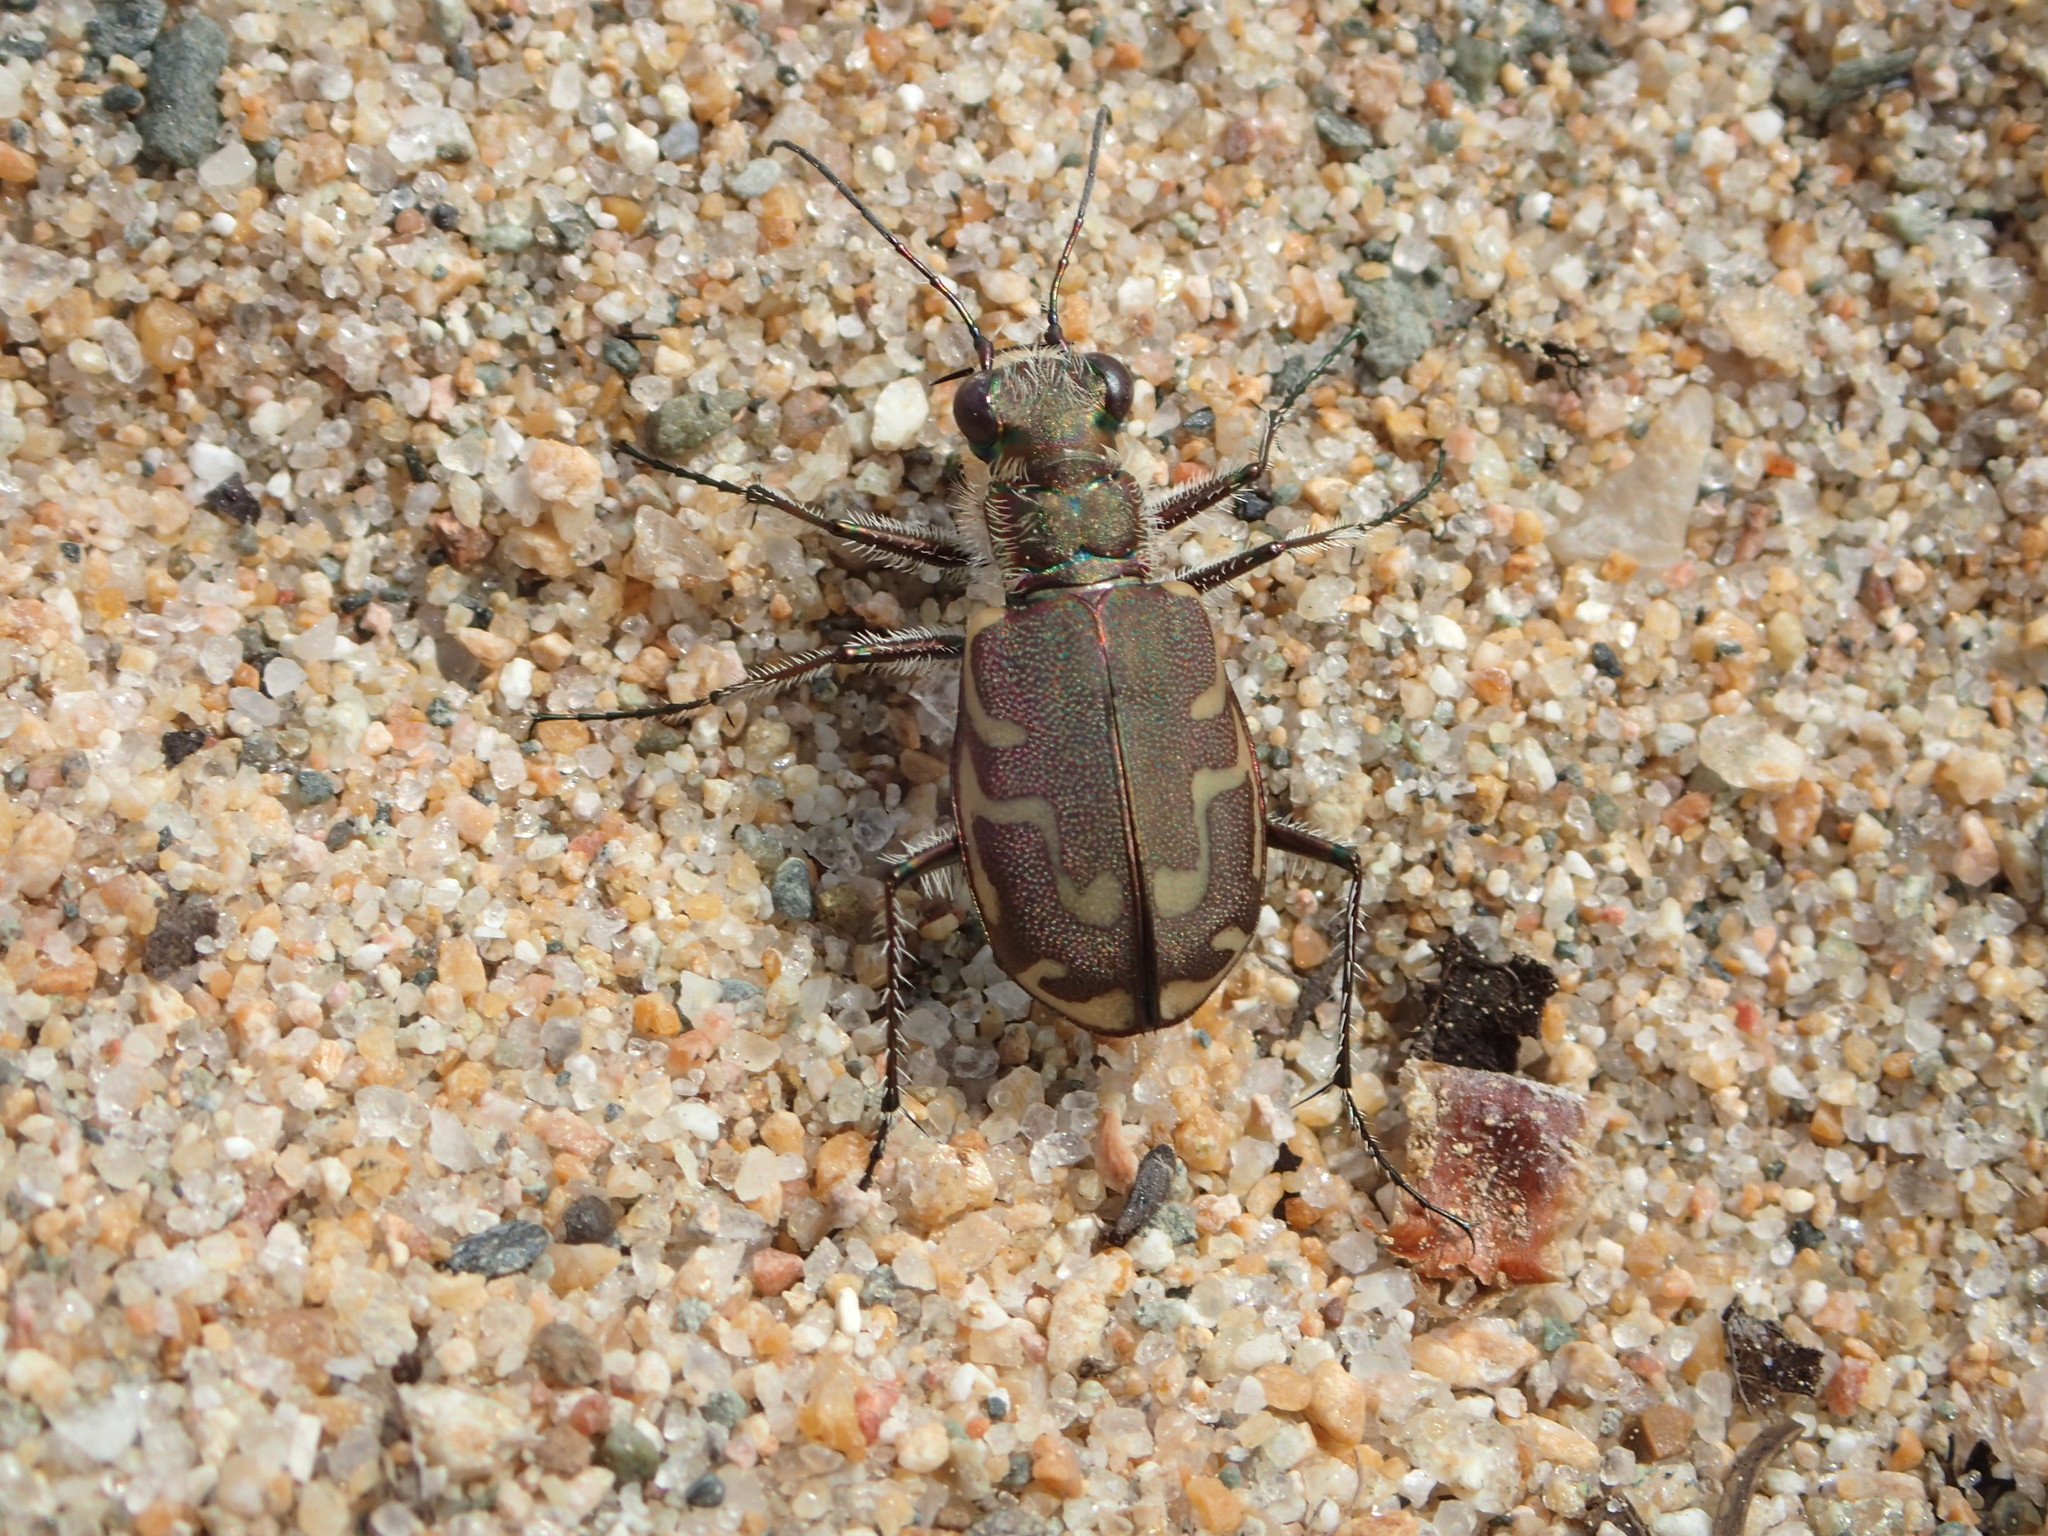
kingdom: Animalia
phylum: Arthropoda
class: Insecta
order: Coleoptera
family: Carabidae
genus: Cicindela
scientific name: Cicindela repanda
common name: Bronzed tiger beetle
